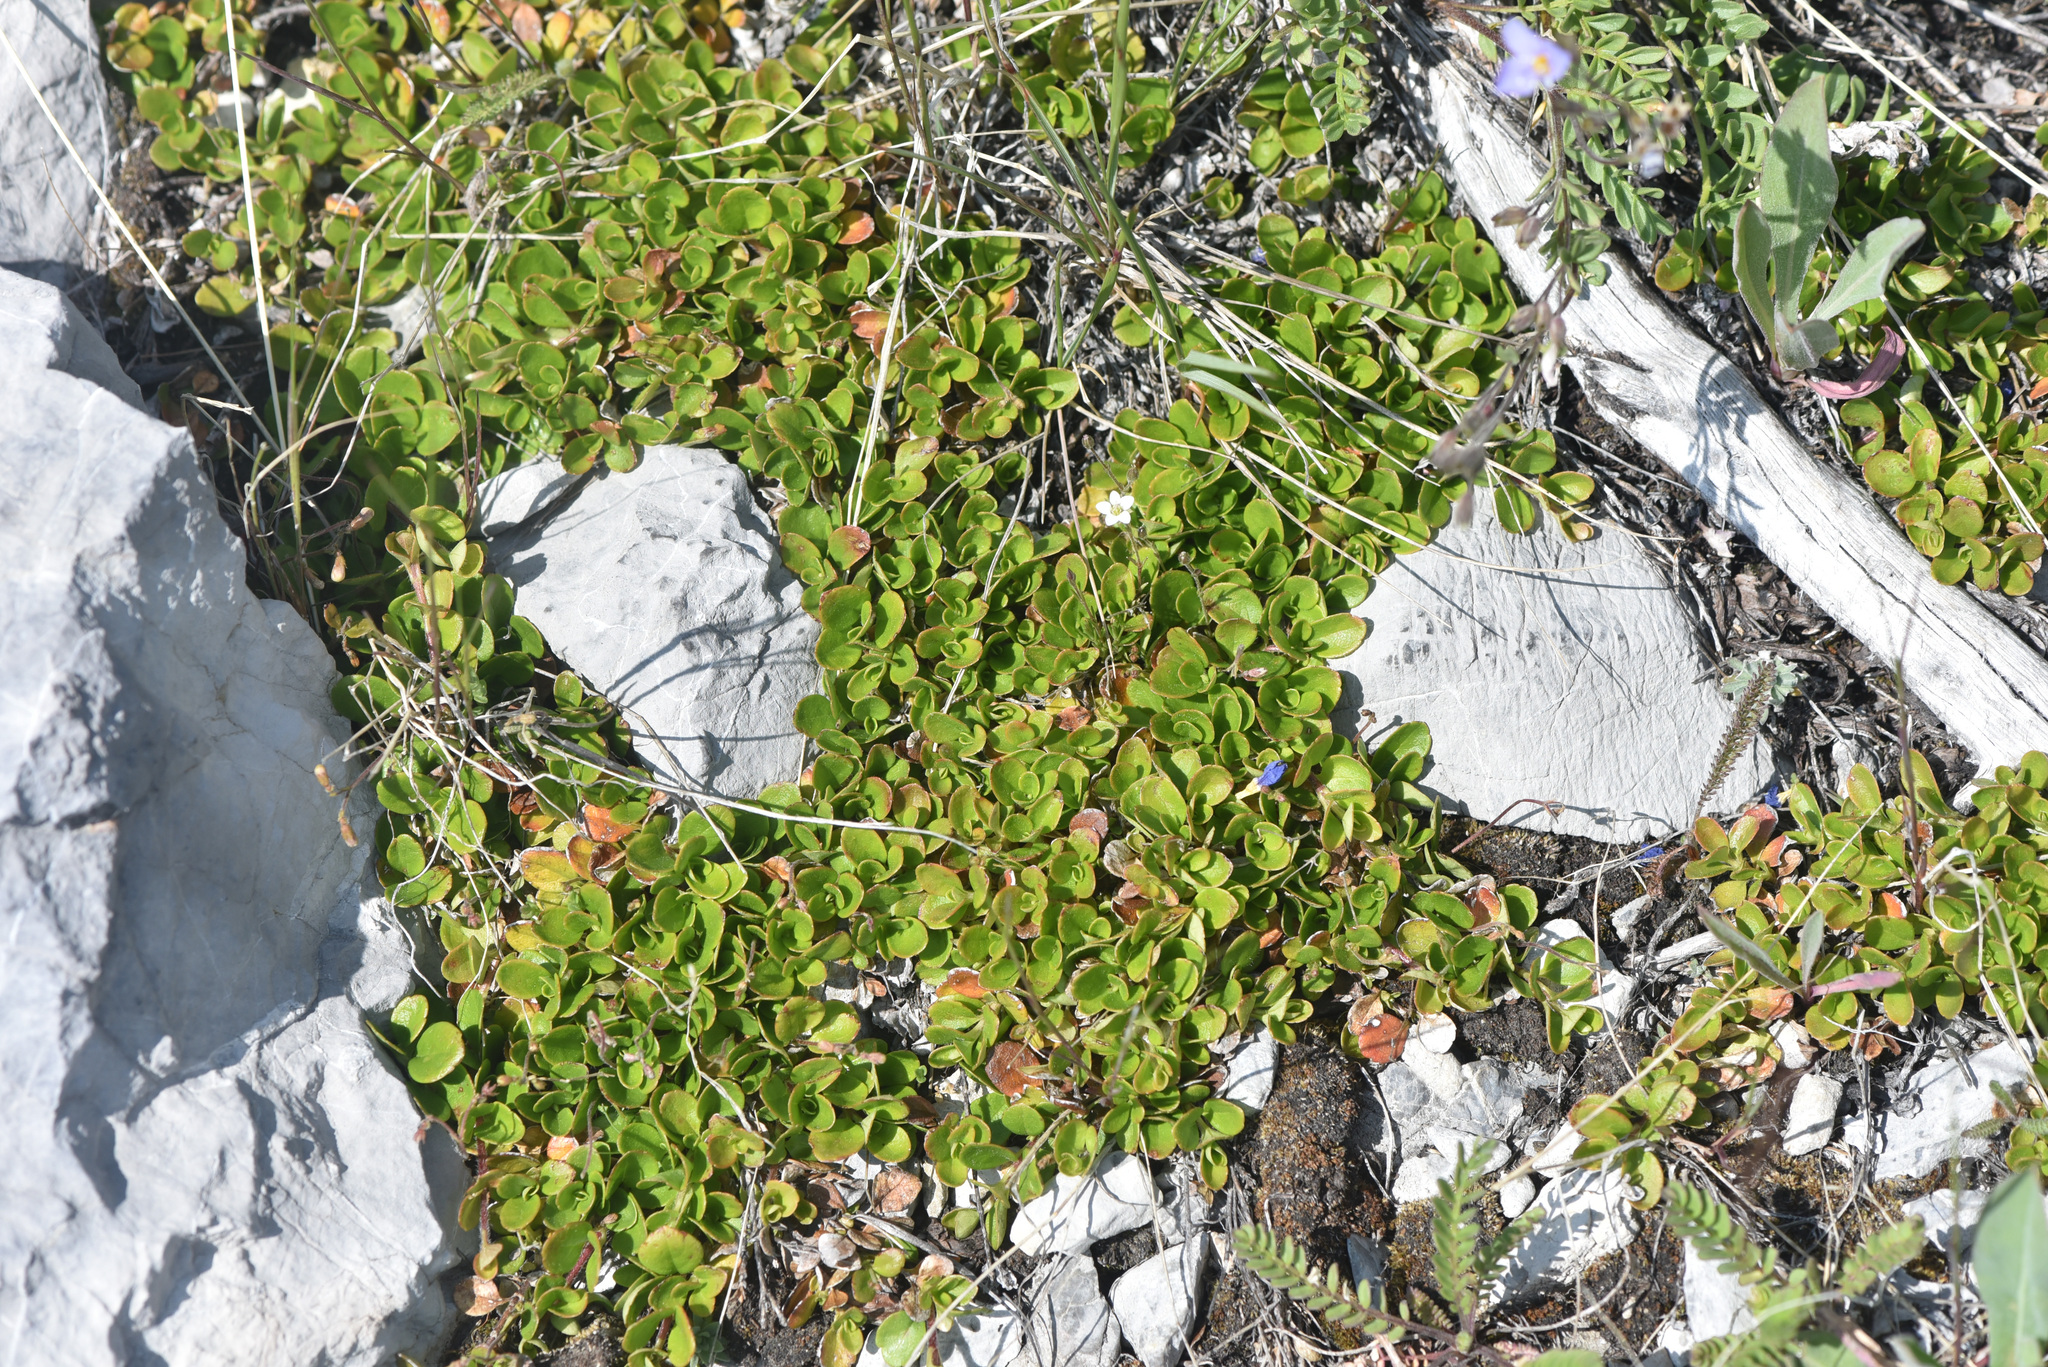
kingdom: Plantae
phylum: Tracheophyta
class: Magnoliopsida
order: Dipsacales
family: Caprifoliaceae
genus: Linnaea
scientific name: Linnaea borealis
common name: Twinflower
